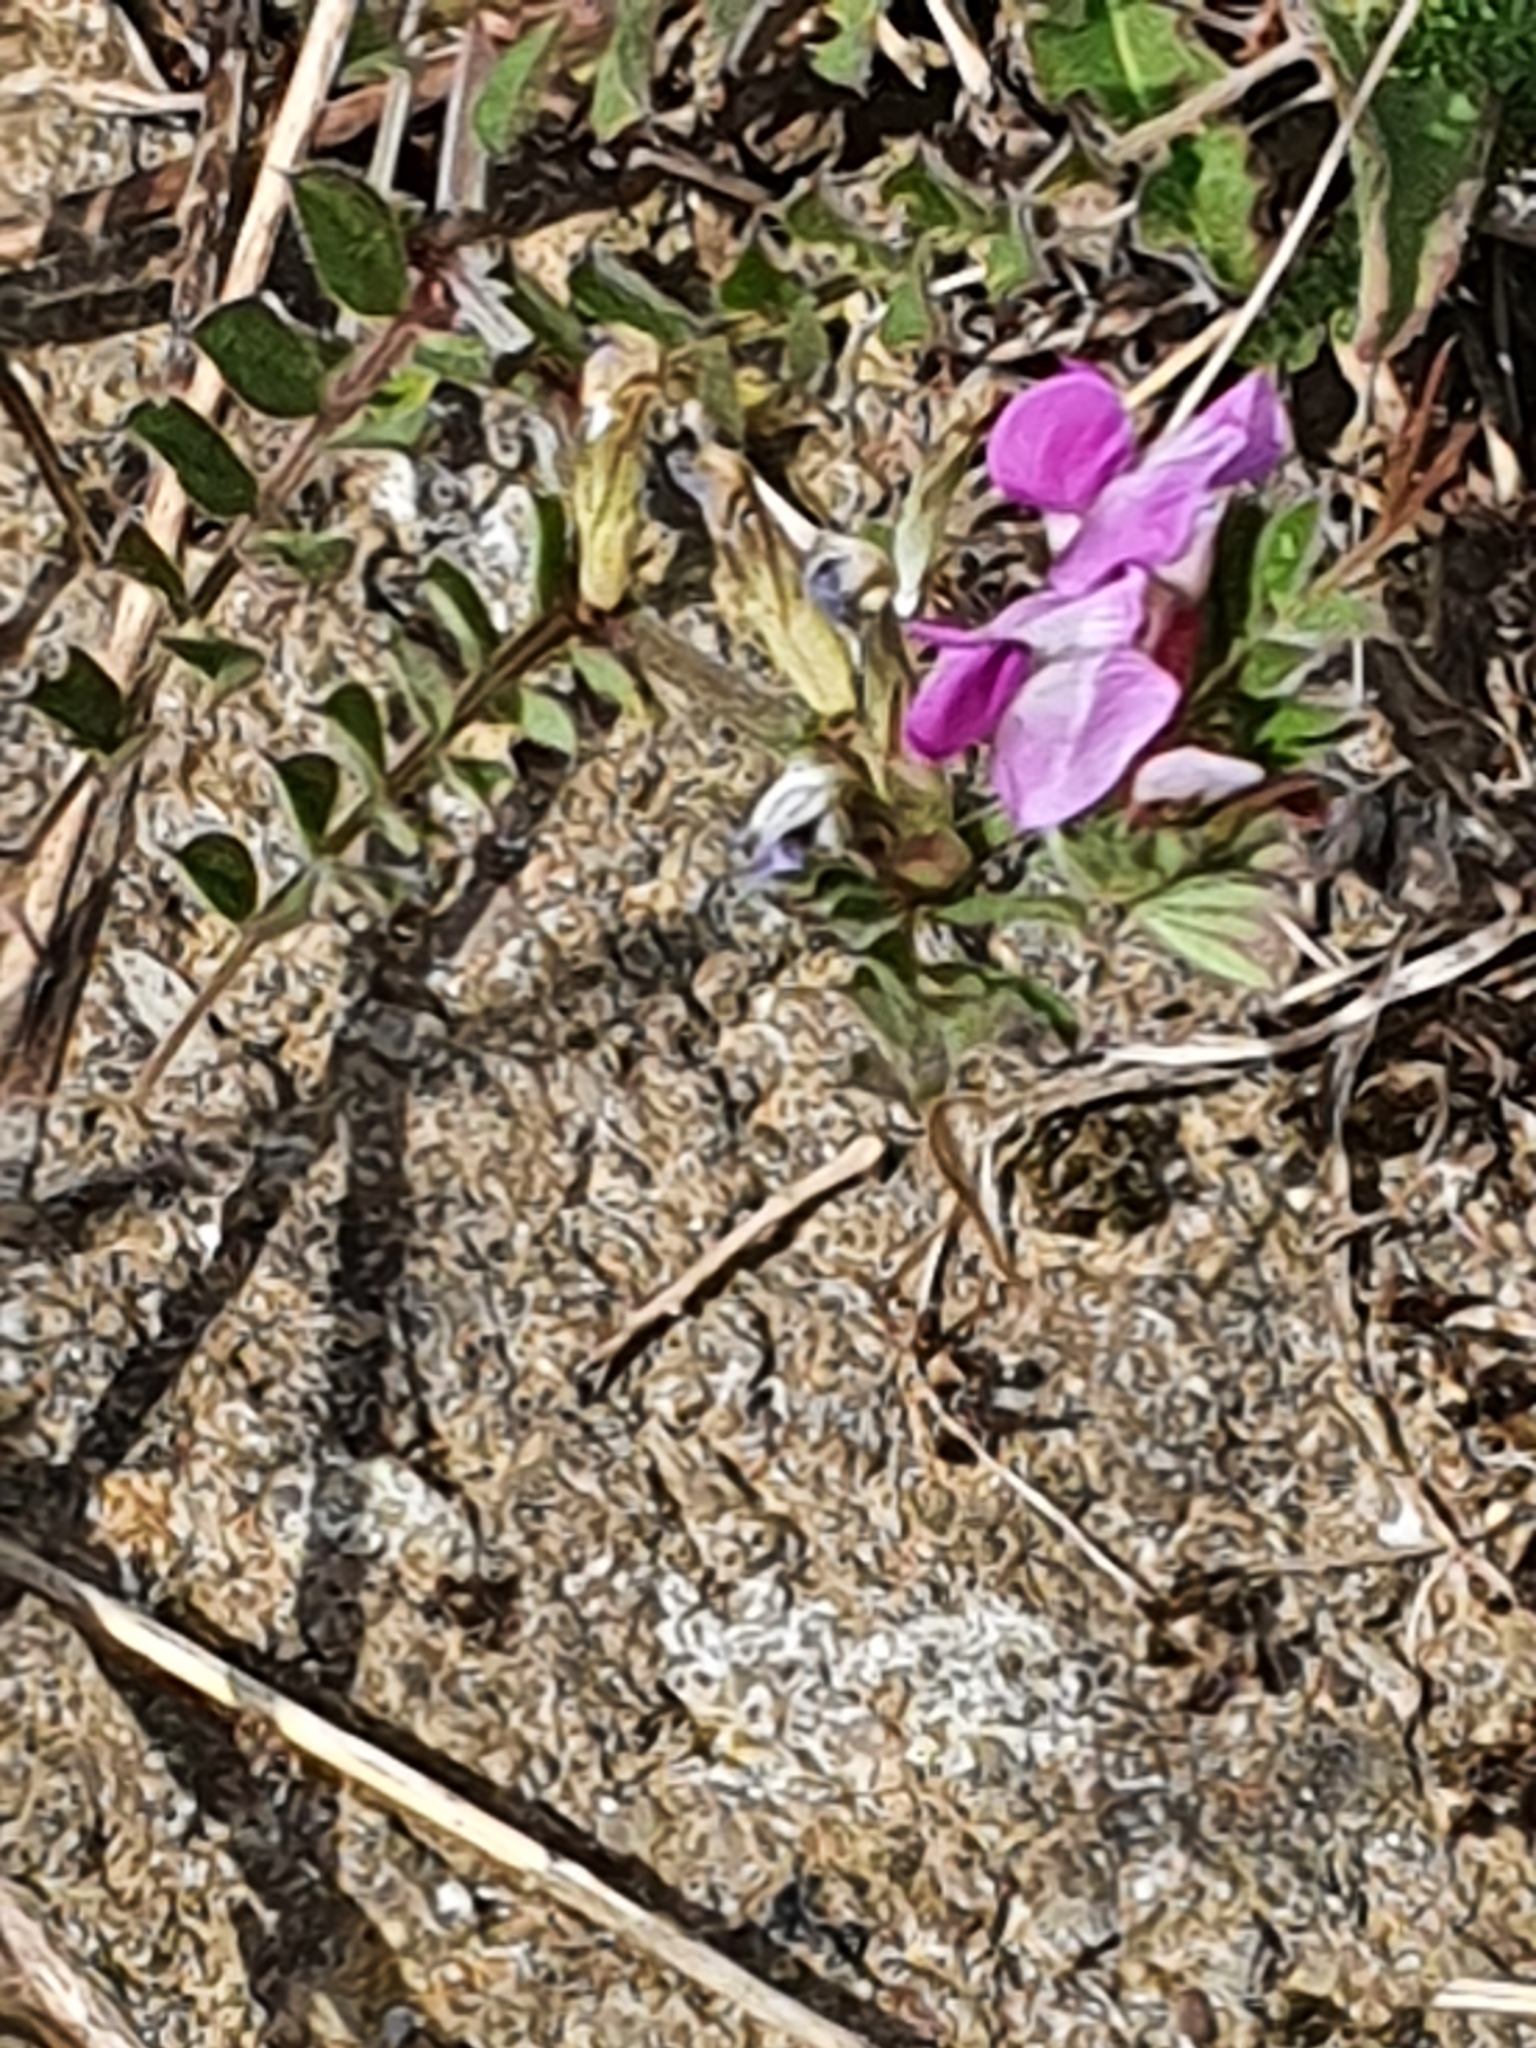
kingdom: Plantae
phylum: Tracheophyta
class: Magnoliopsida
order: Fabales
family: Fabaceae
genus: Vicia
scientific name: Vicia sativa
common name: Garden vetch
